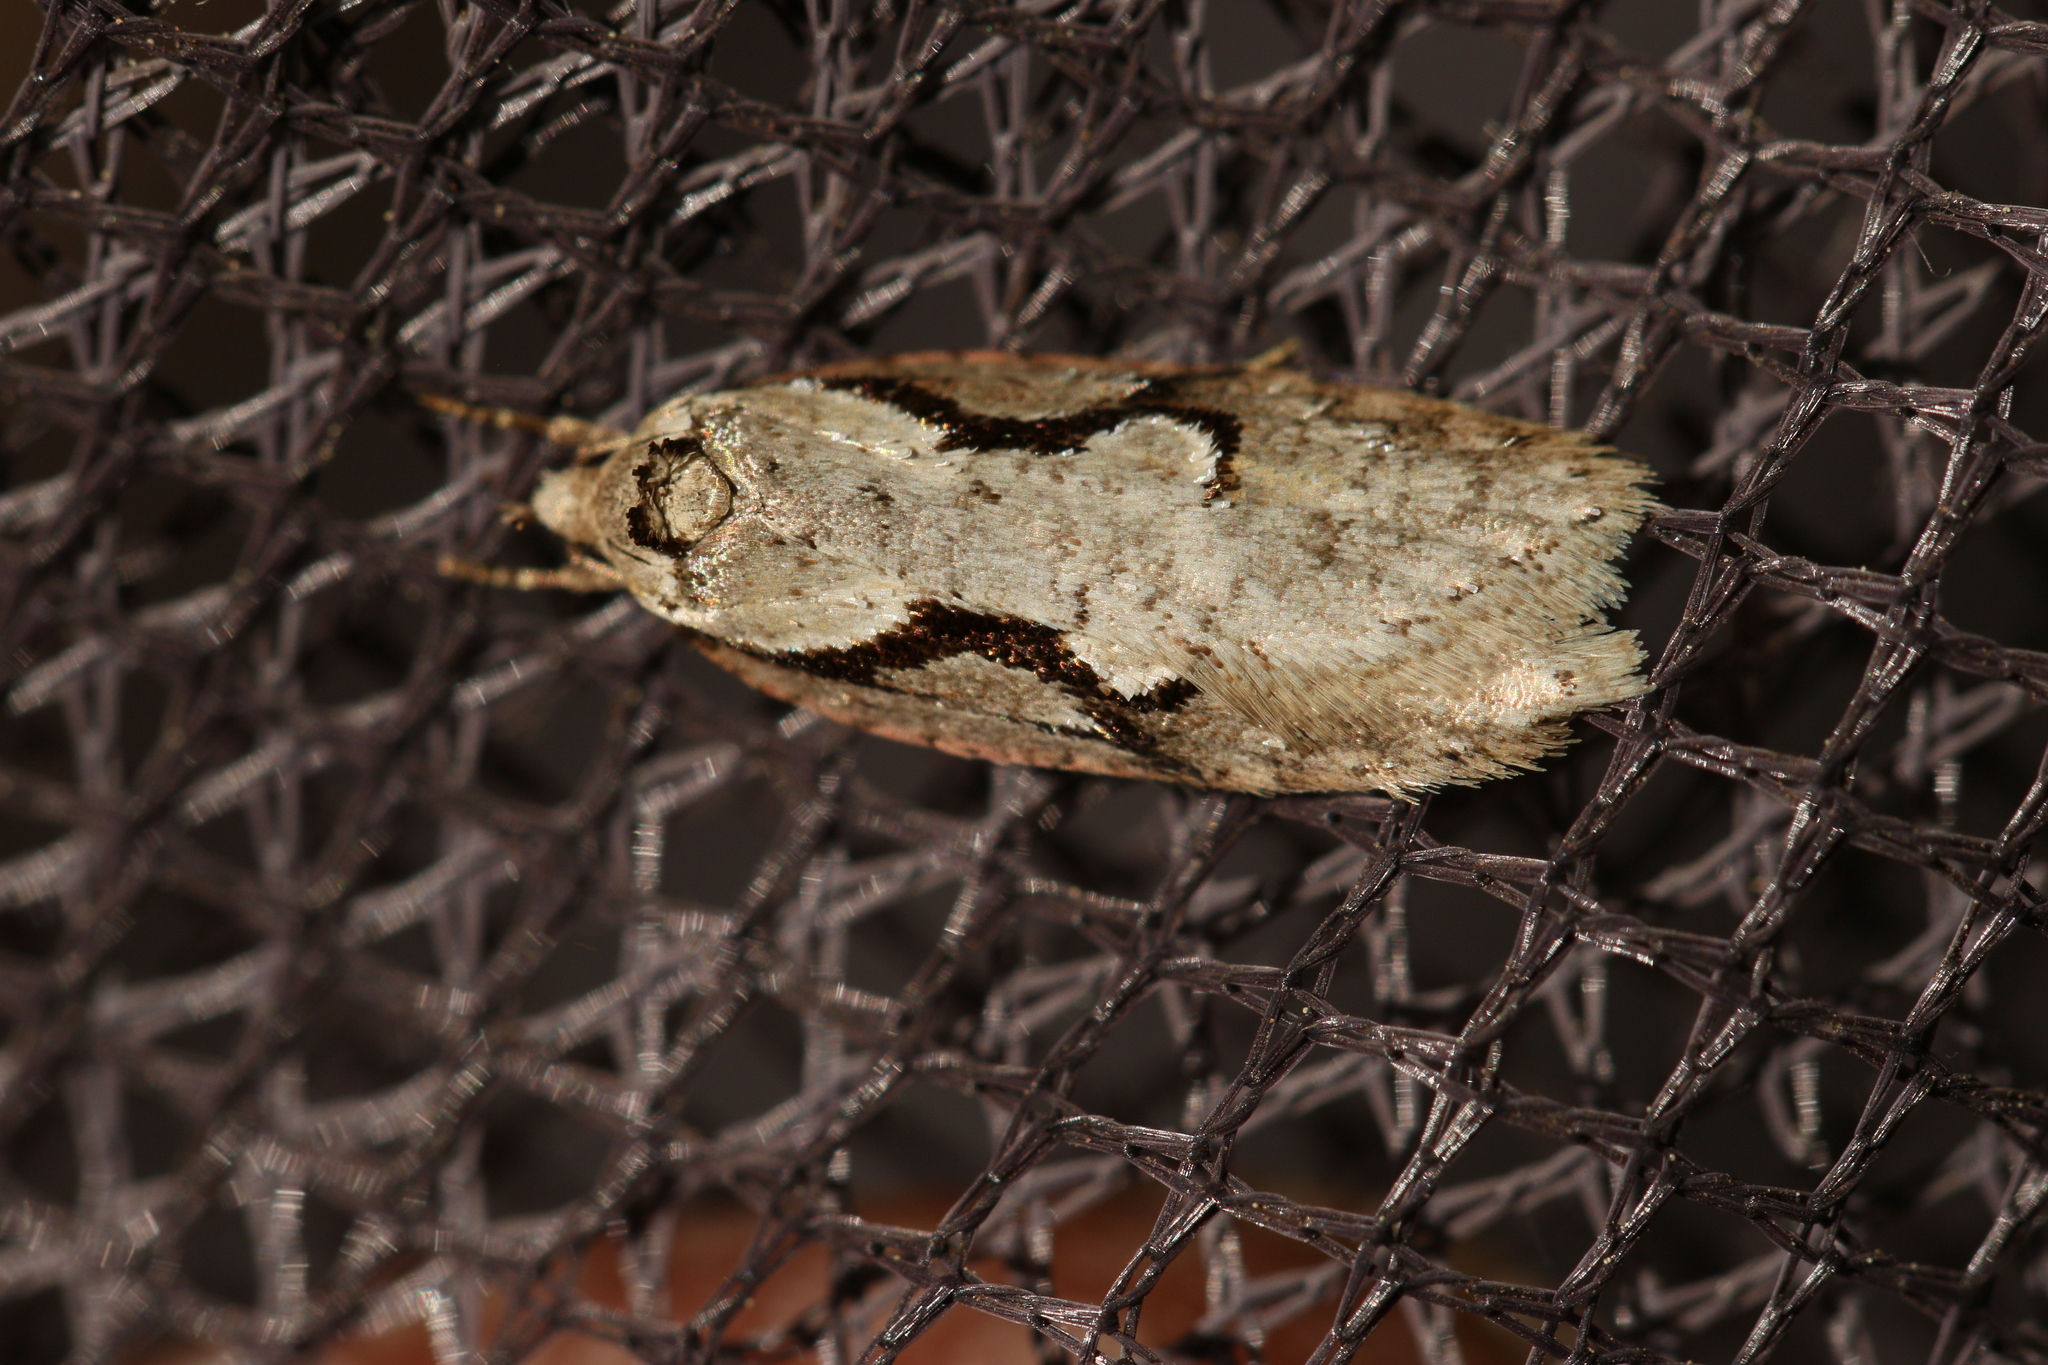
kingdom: Animalia
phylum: Arthropoda
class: Insecta
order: Lepidoptera
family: Depressariidae
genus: Semioscopis
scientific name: Semioscopis packardella
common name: Packard's concealer moth
